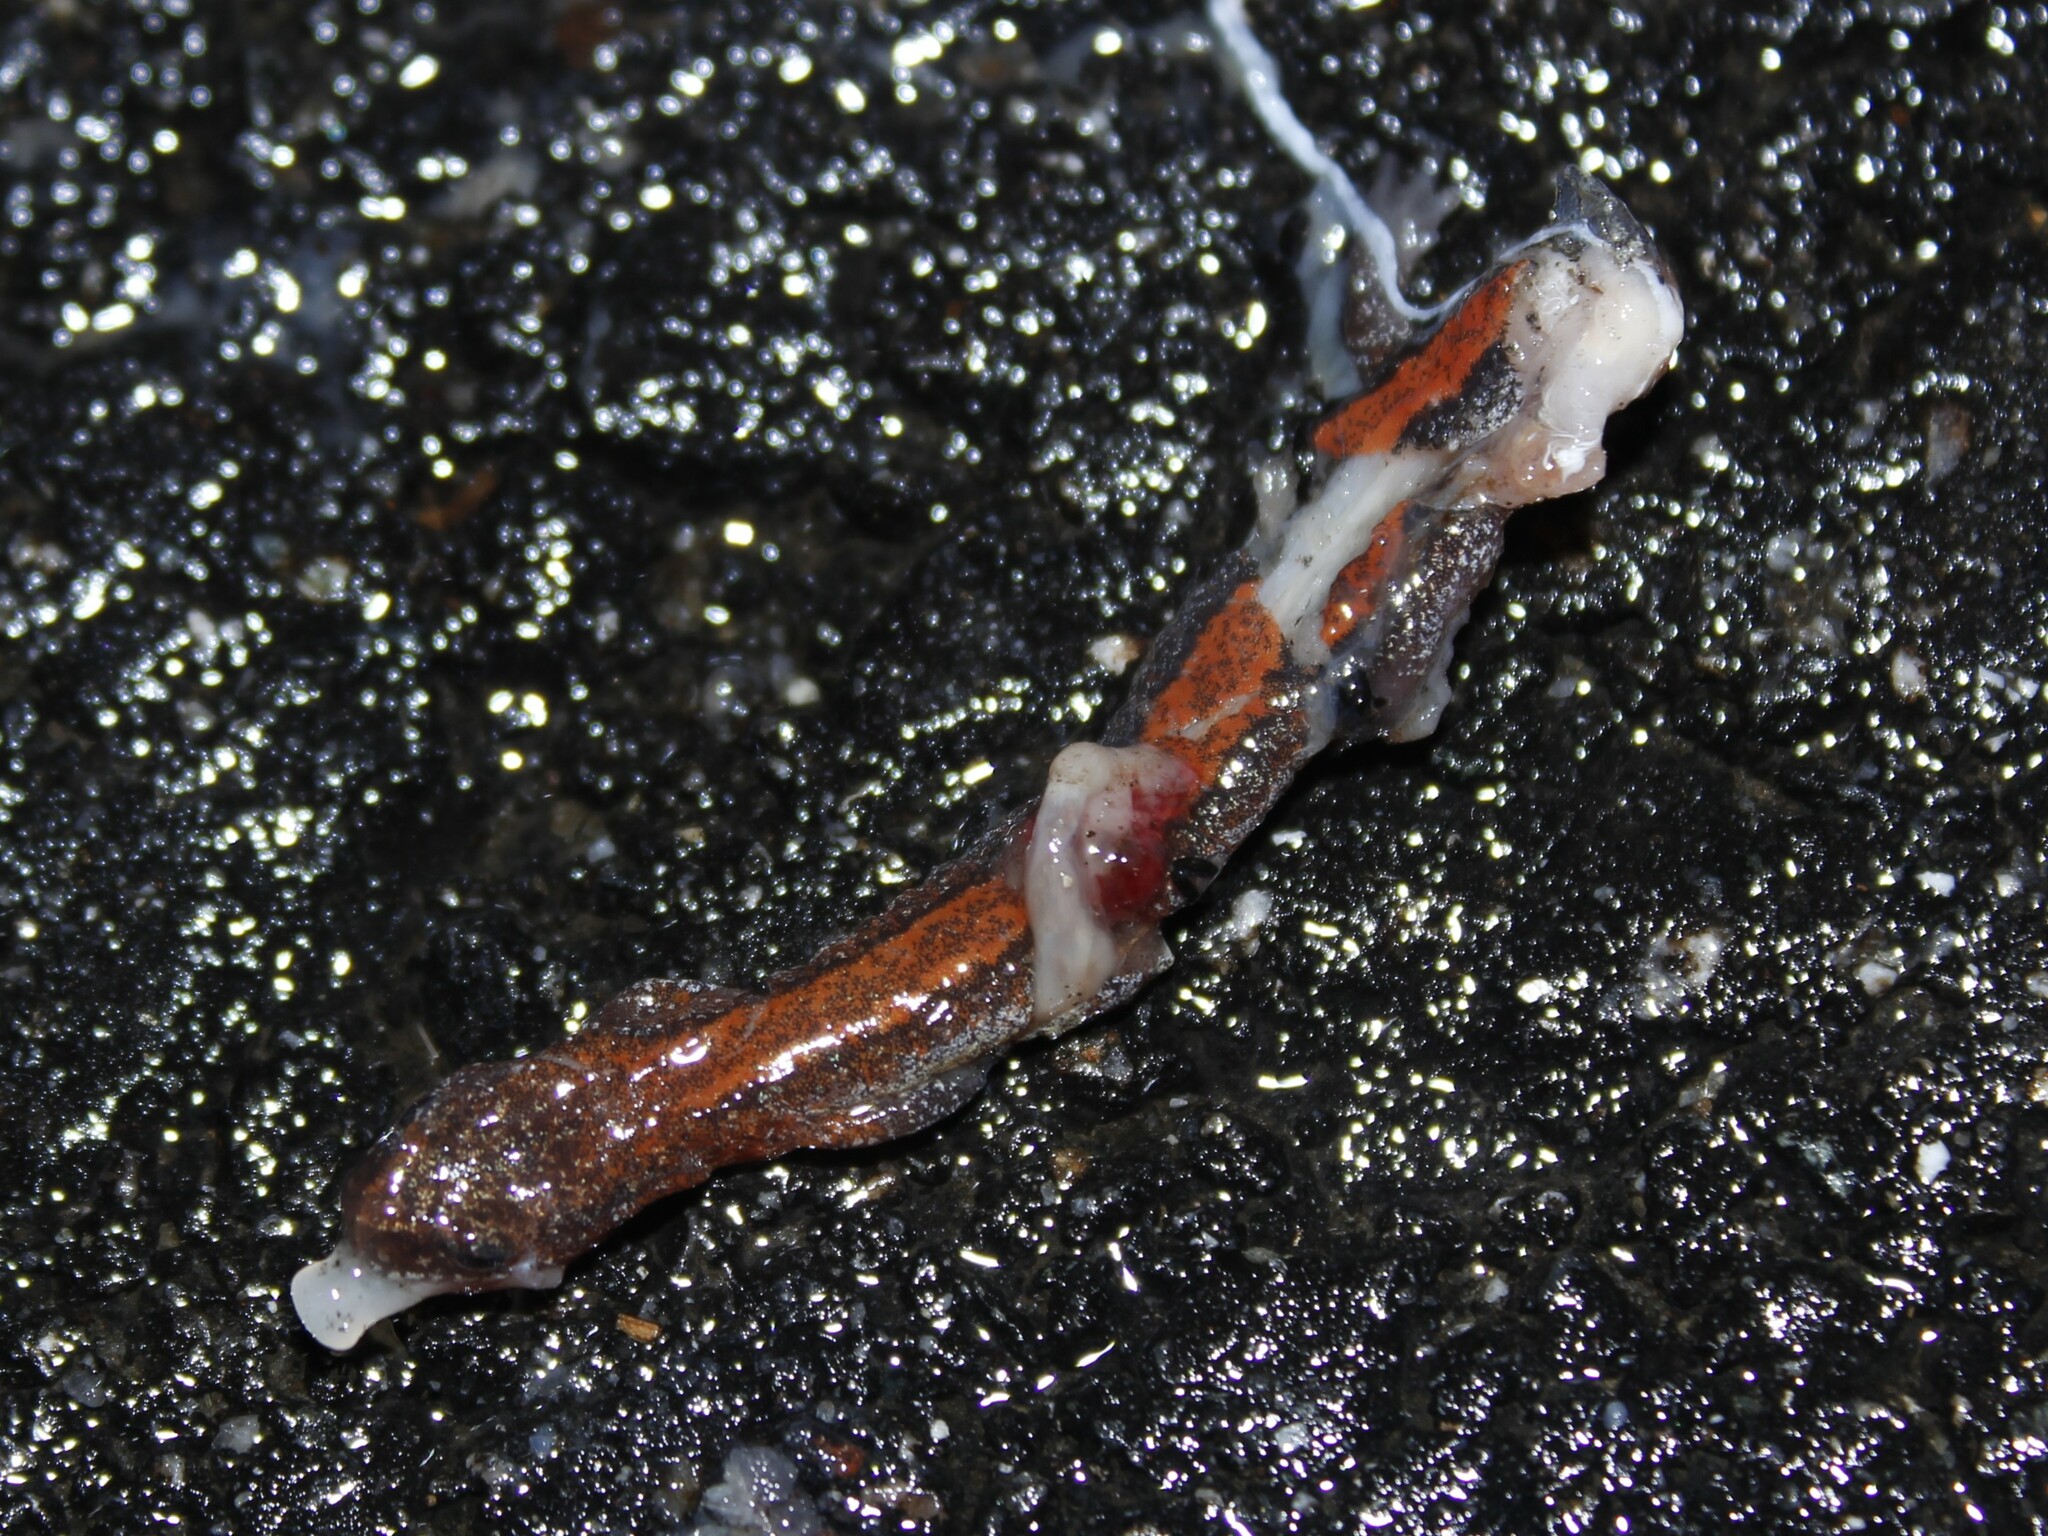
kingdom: Animalia
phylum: Chordata
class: Amphibia
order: Caudata
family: Plethodontidae
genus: Plethodon
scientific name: Plethodon cinereus
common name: Redback salamander
